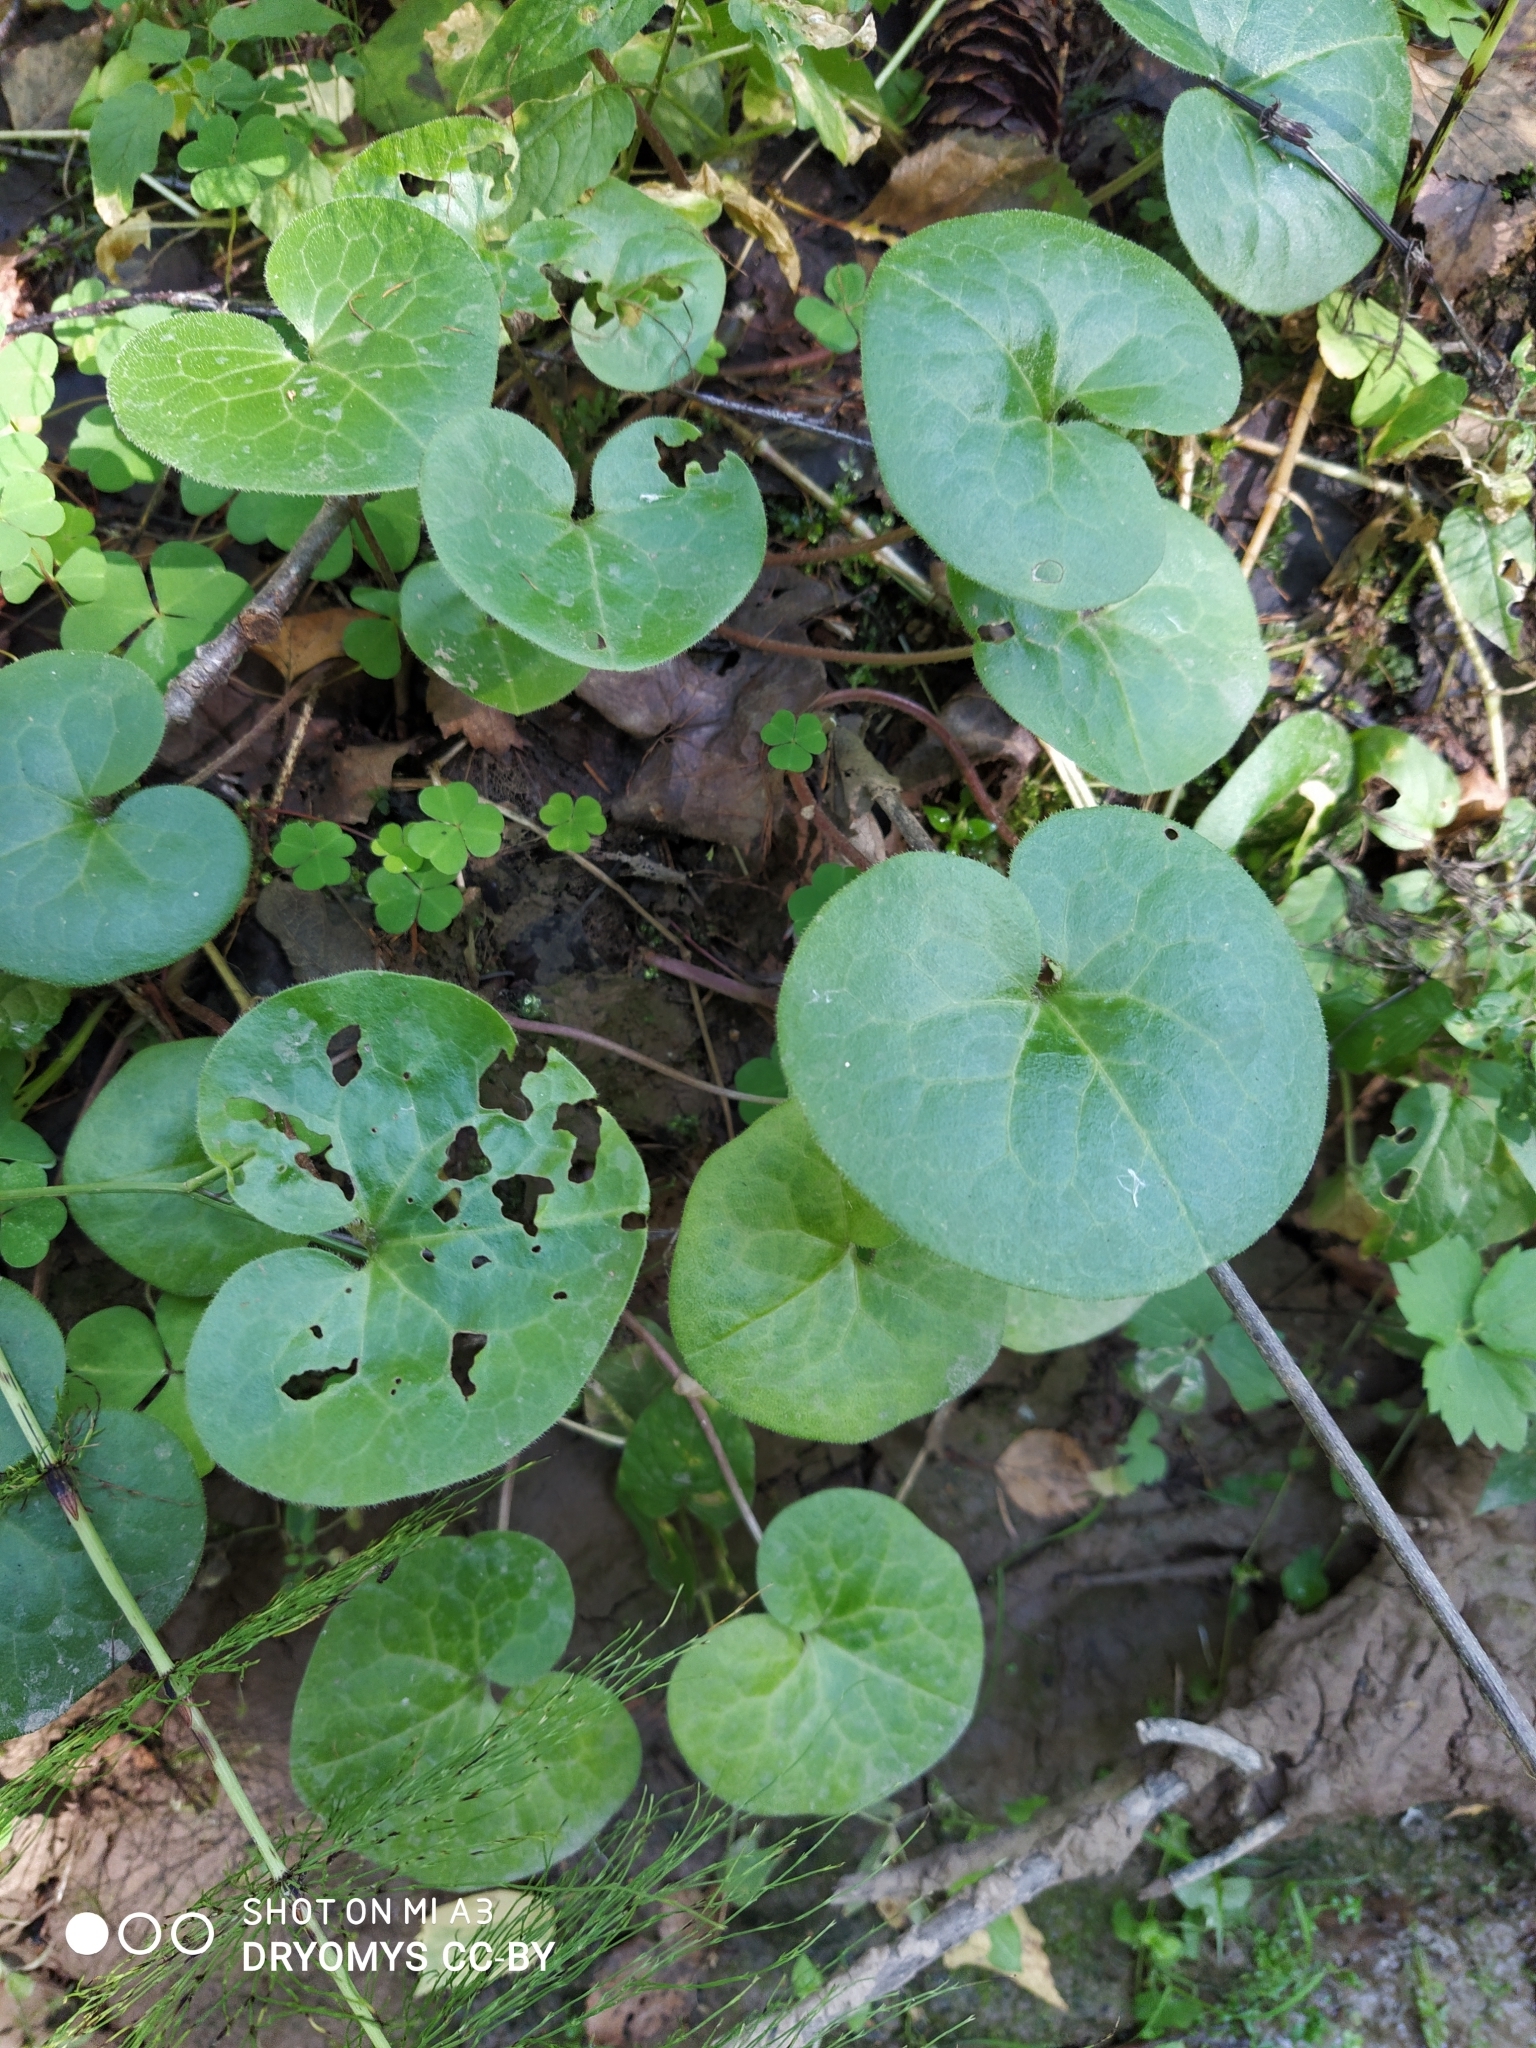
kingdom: Plantae
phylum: Tracheophyta
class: Magnoliopsida
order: Piperales
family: Aristolochiaceae
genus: Asarum
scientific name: Asarum europaeum
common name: Asarabacca
